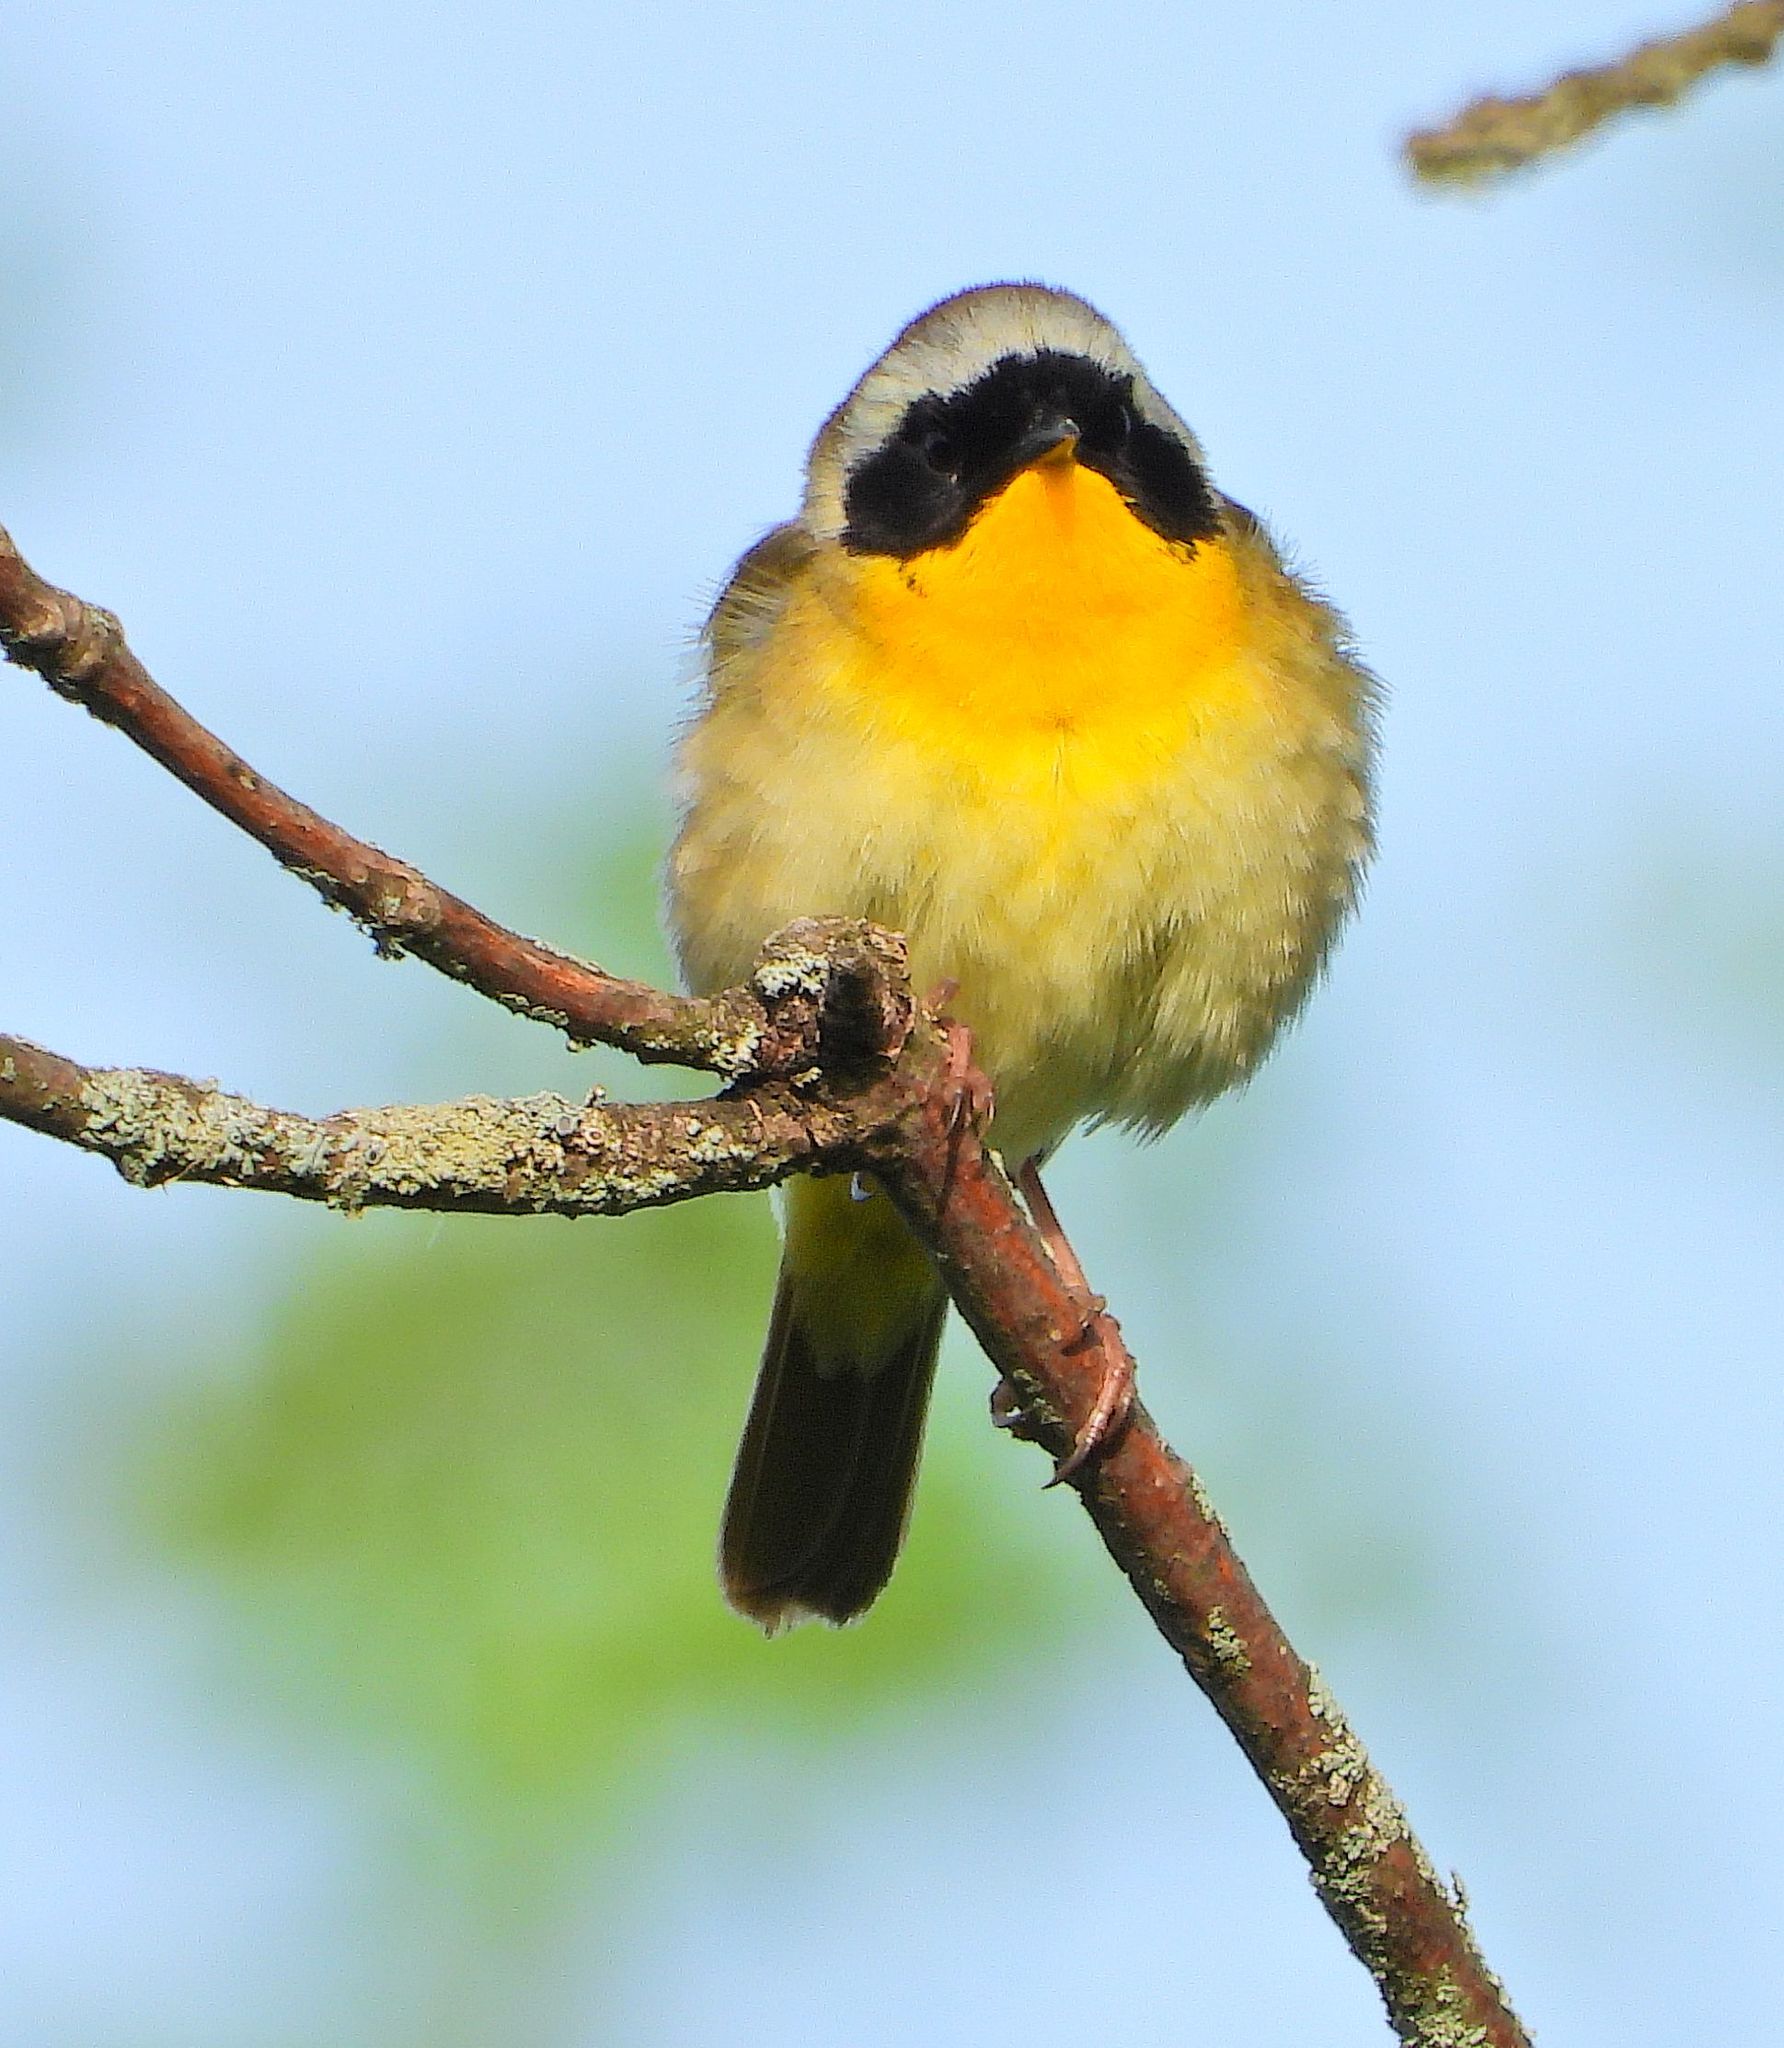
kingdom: Animalia
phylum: Chordata
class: Aves
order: Passeriformes
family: Parulidae
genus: Geothlypis
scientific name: Geothlypis trichas
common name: Common yellowthroat
